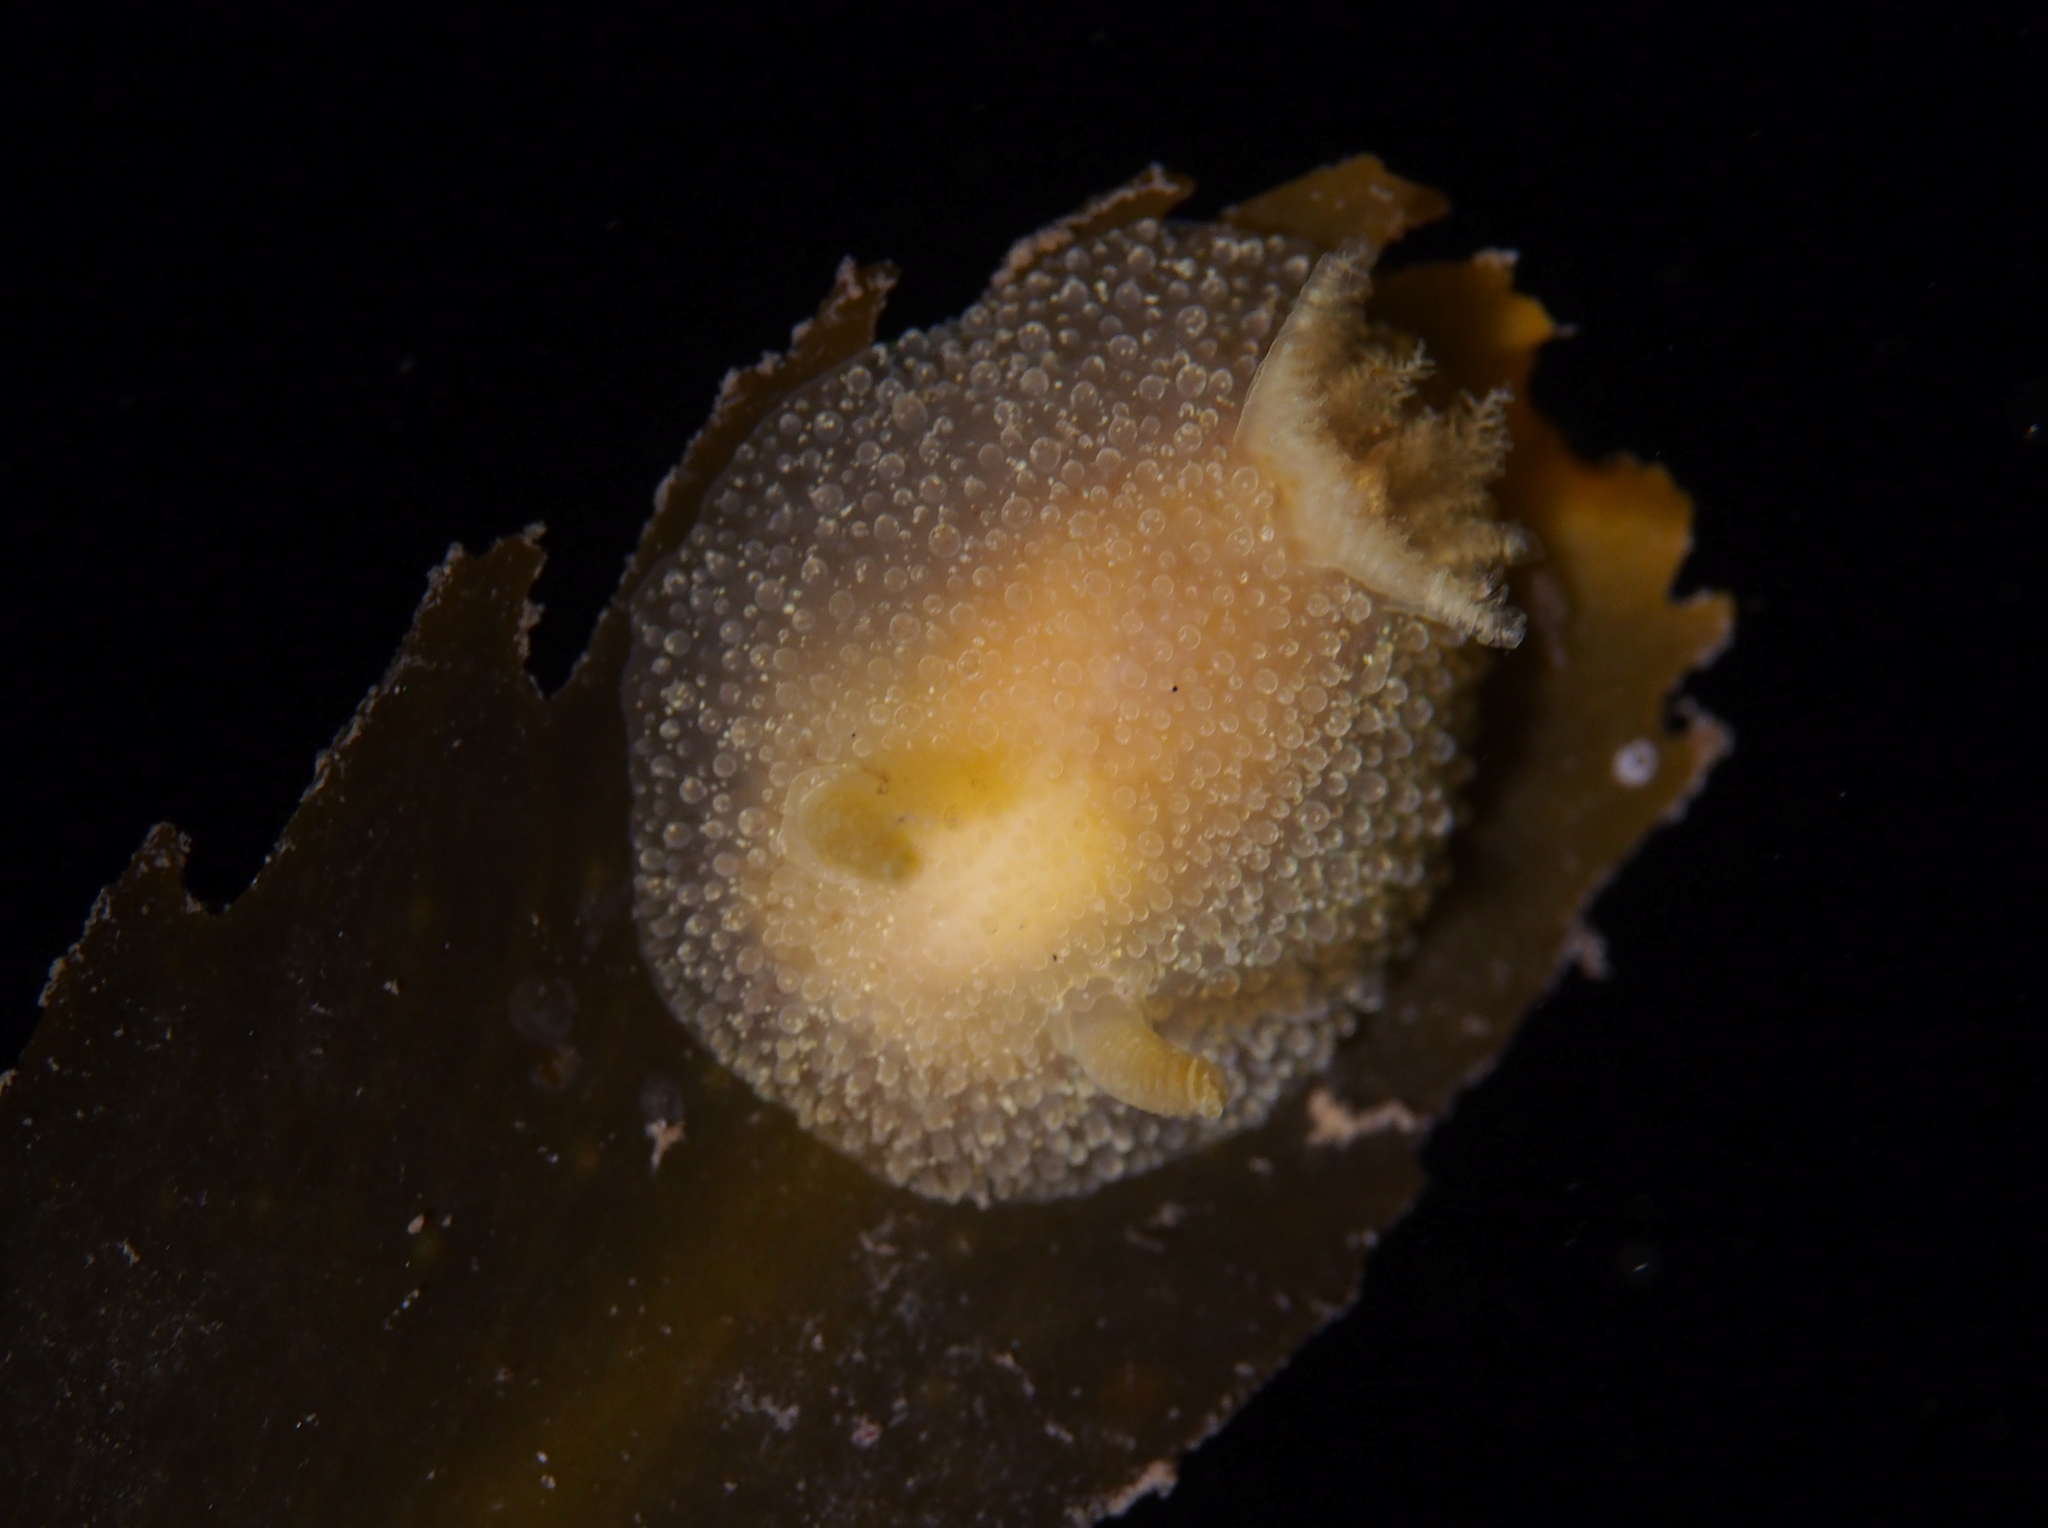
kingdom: Animalia
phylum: Mollusca
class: Gastropoda
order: Nudibranchia
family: Onchidorididae
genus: Acanthodoris
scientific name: Acanthodoris pilosa
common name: Hairy spiny doris
